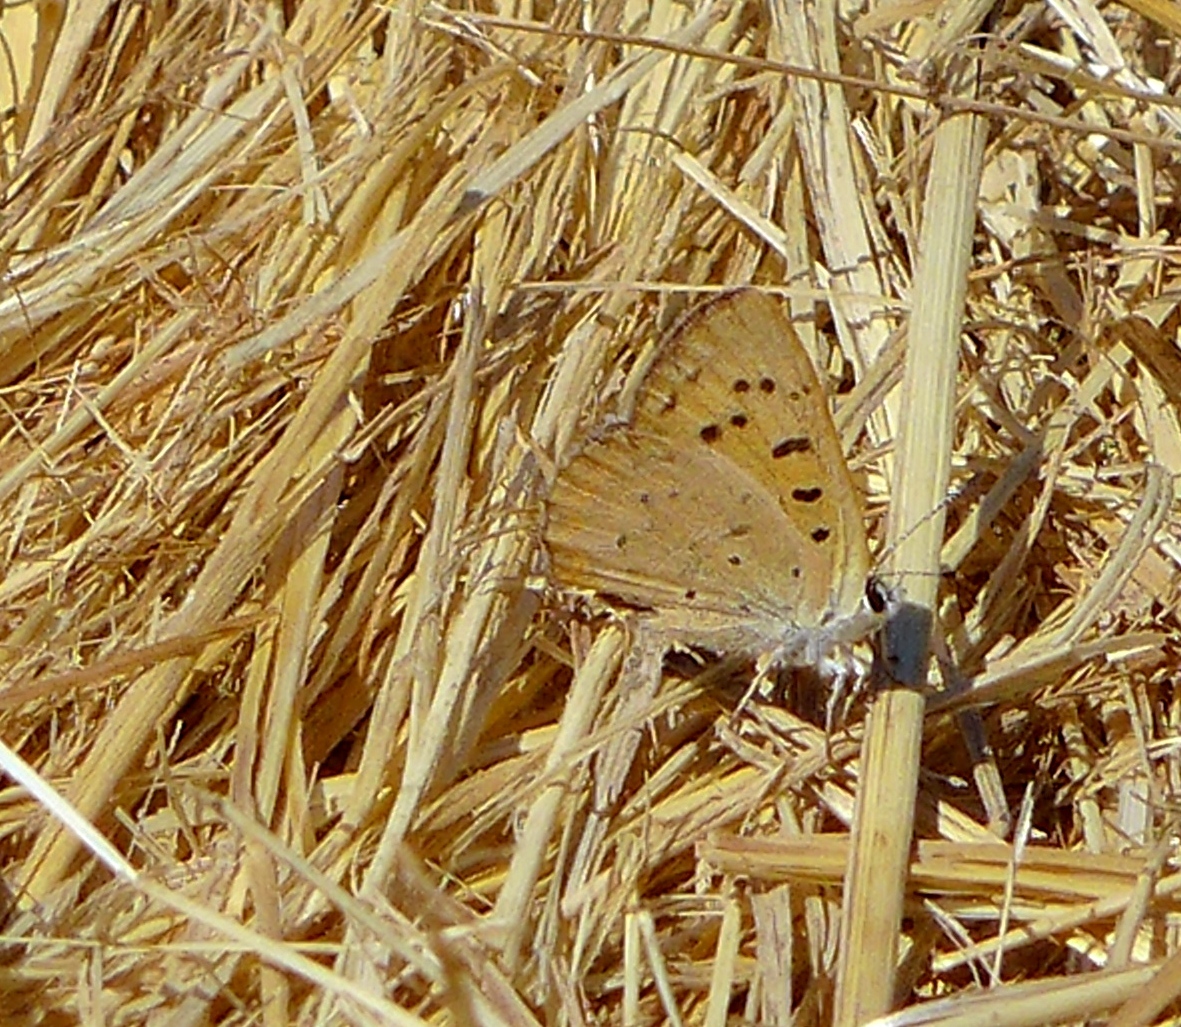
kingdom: Animalia
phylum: Arthropoda
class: Insecta
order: Lepidoptera
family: Lycaenidae
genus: Tharsalea
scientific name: Tharsalea helloides
